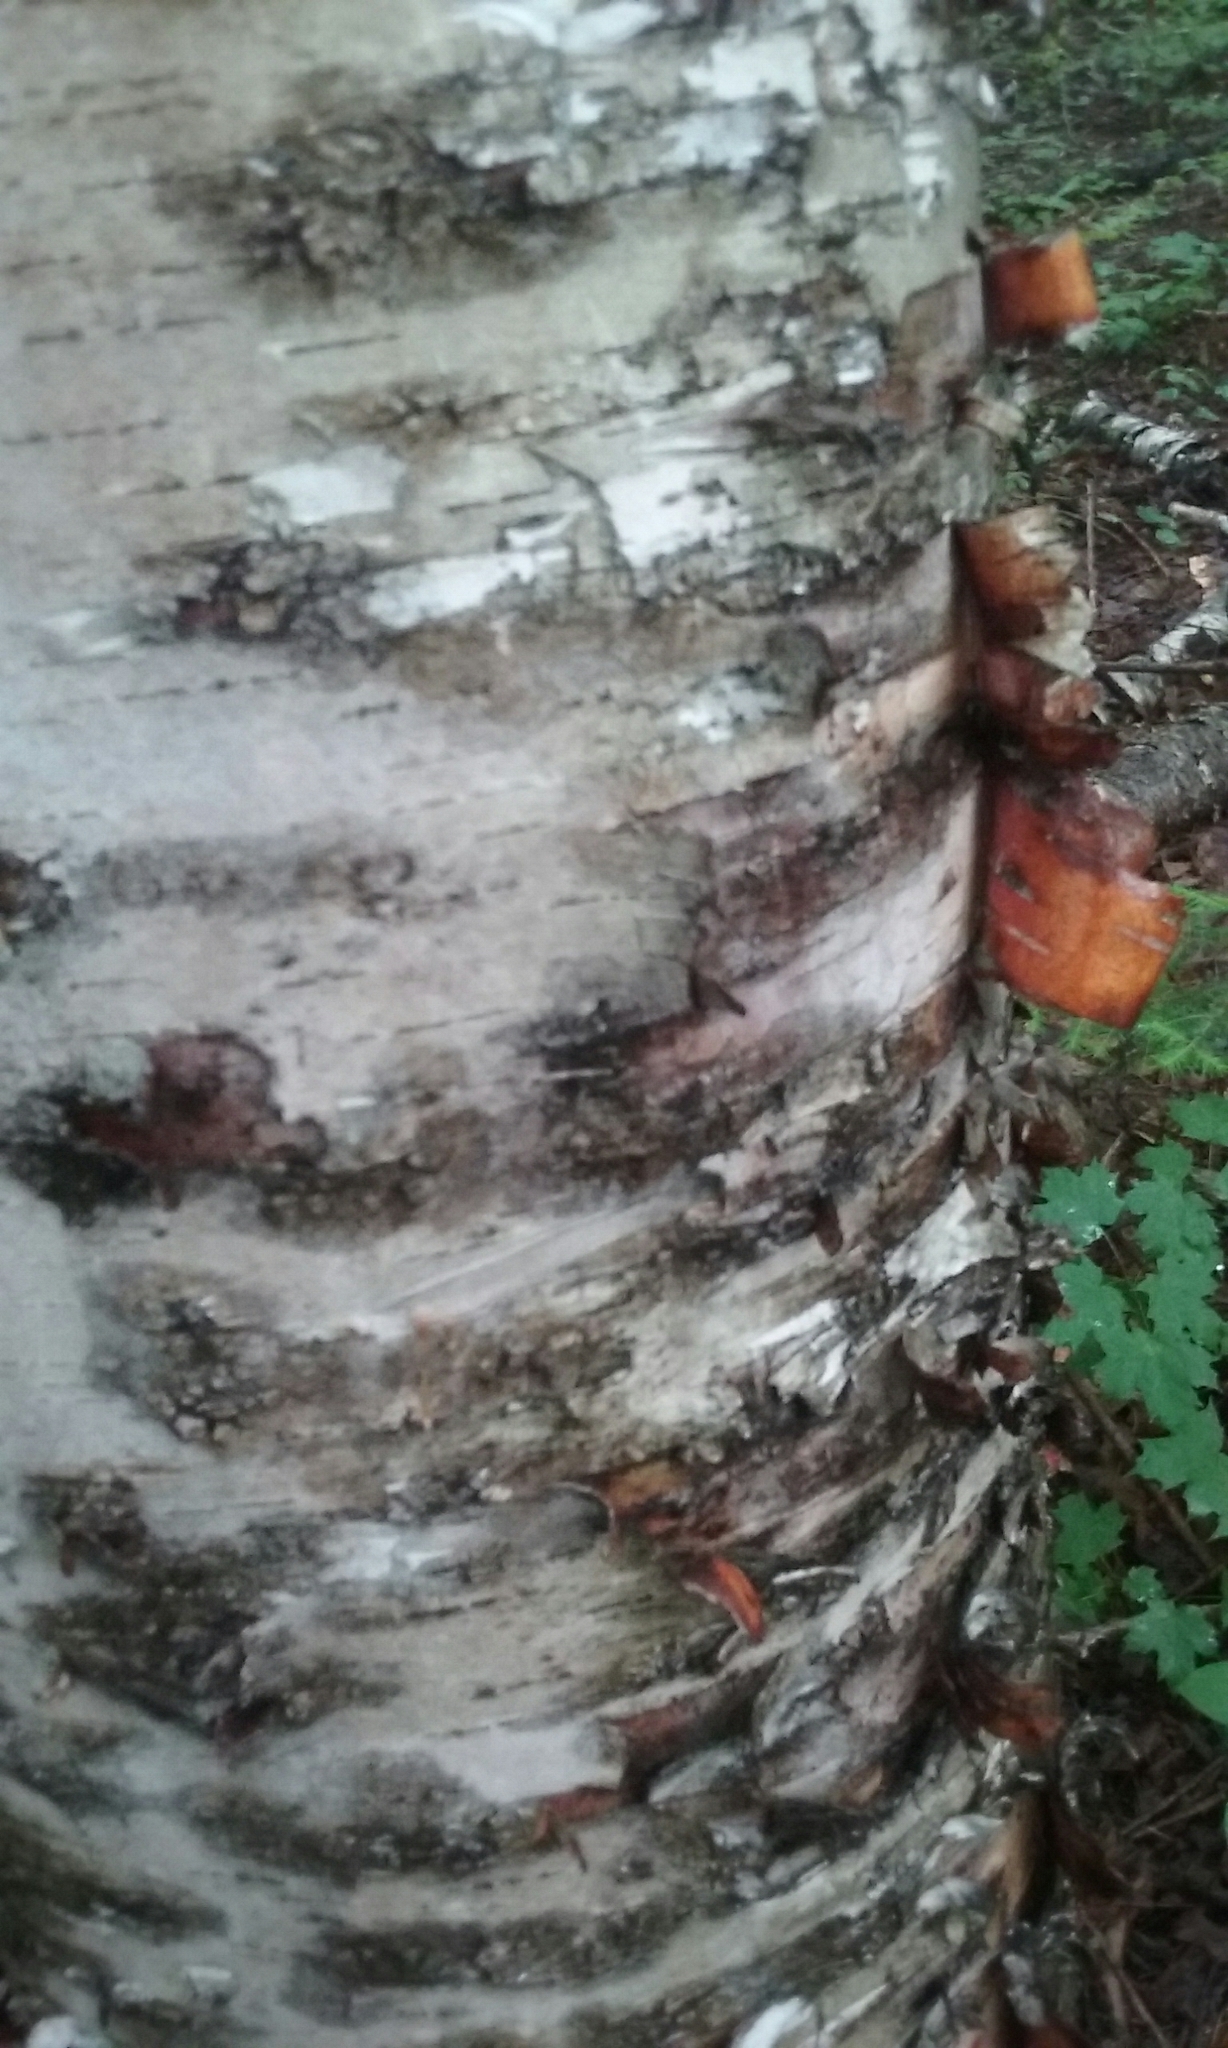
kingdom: Plantae
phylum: Tracheophyta
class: Magnoliopsida
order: Fagales
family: Betulaceae
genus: Betula
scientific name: Betula papyrifera
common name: Paper birch
